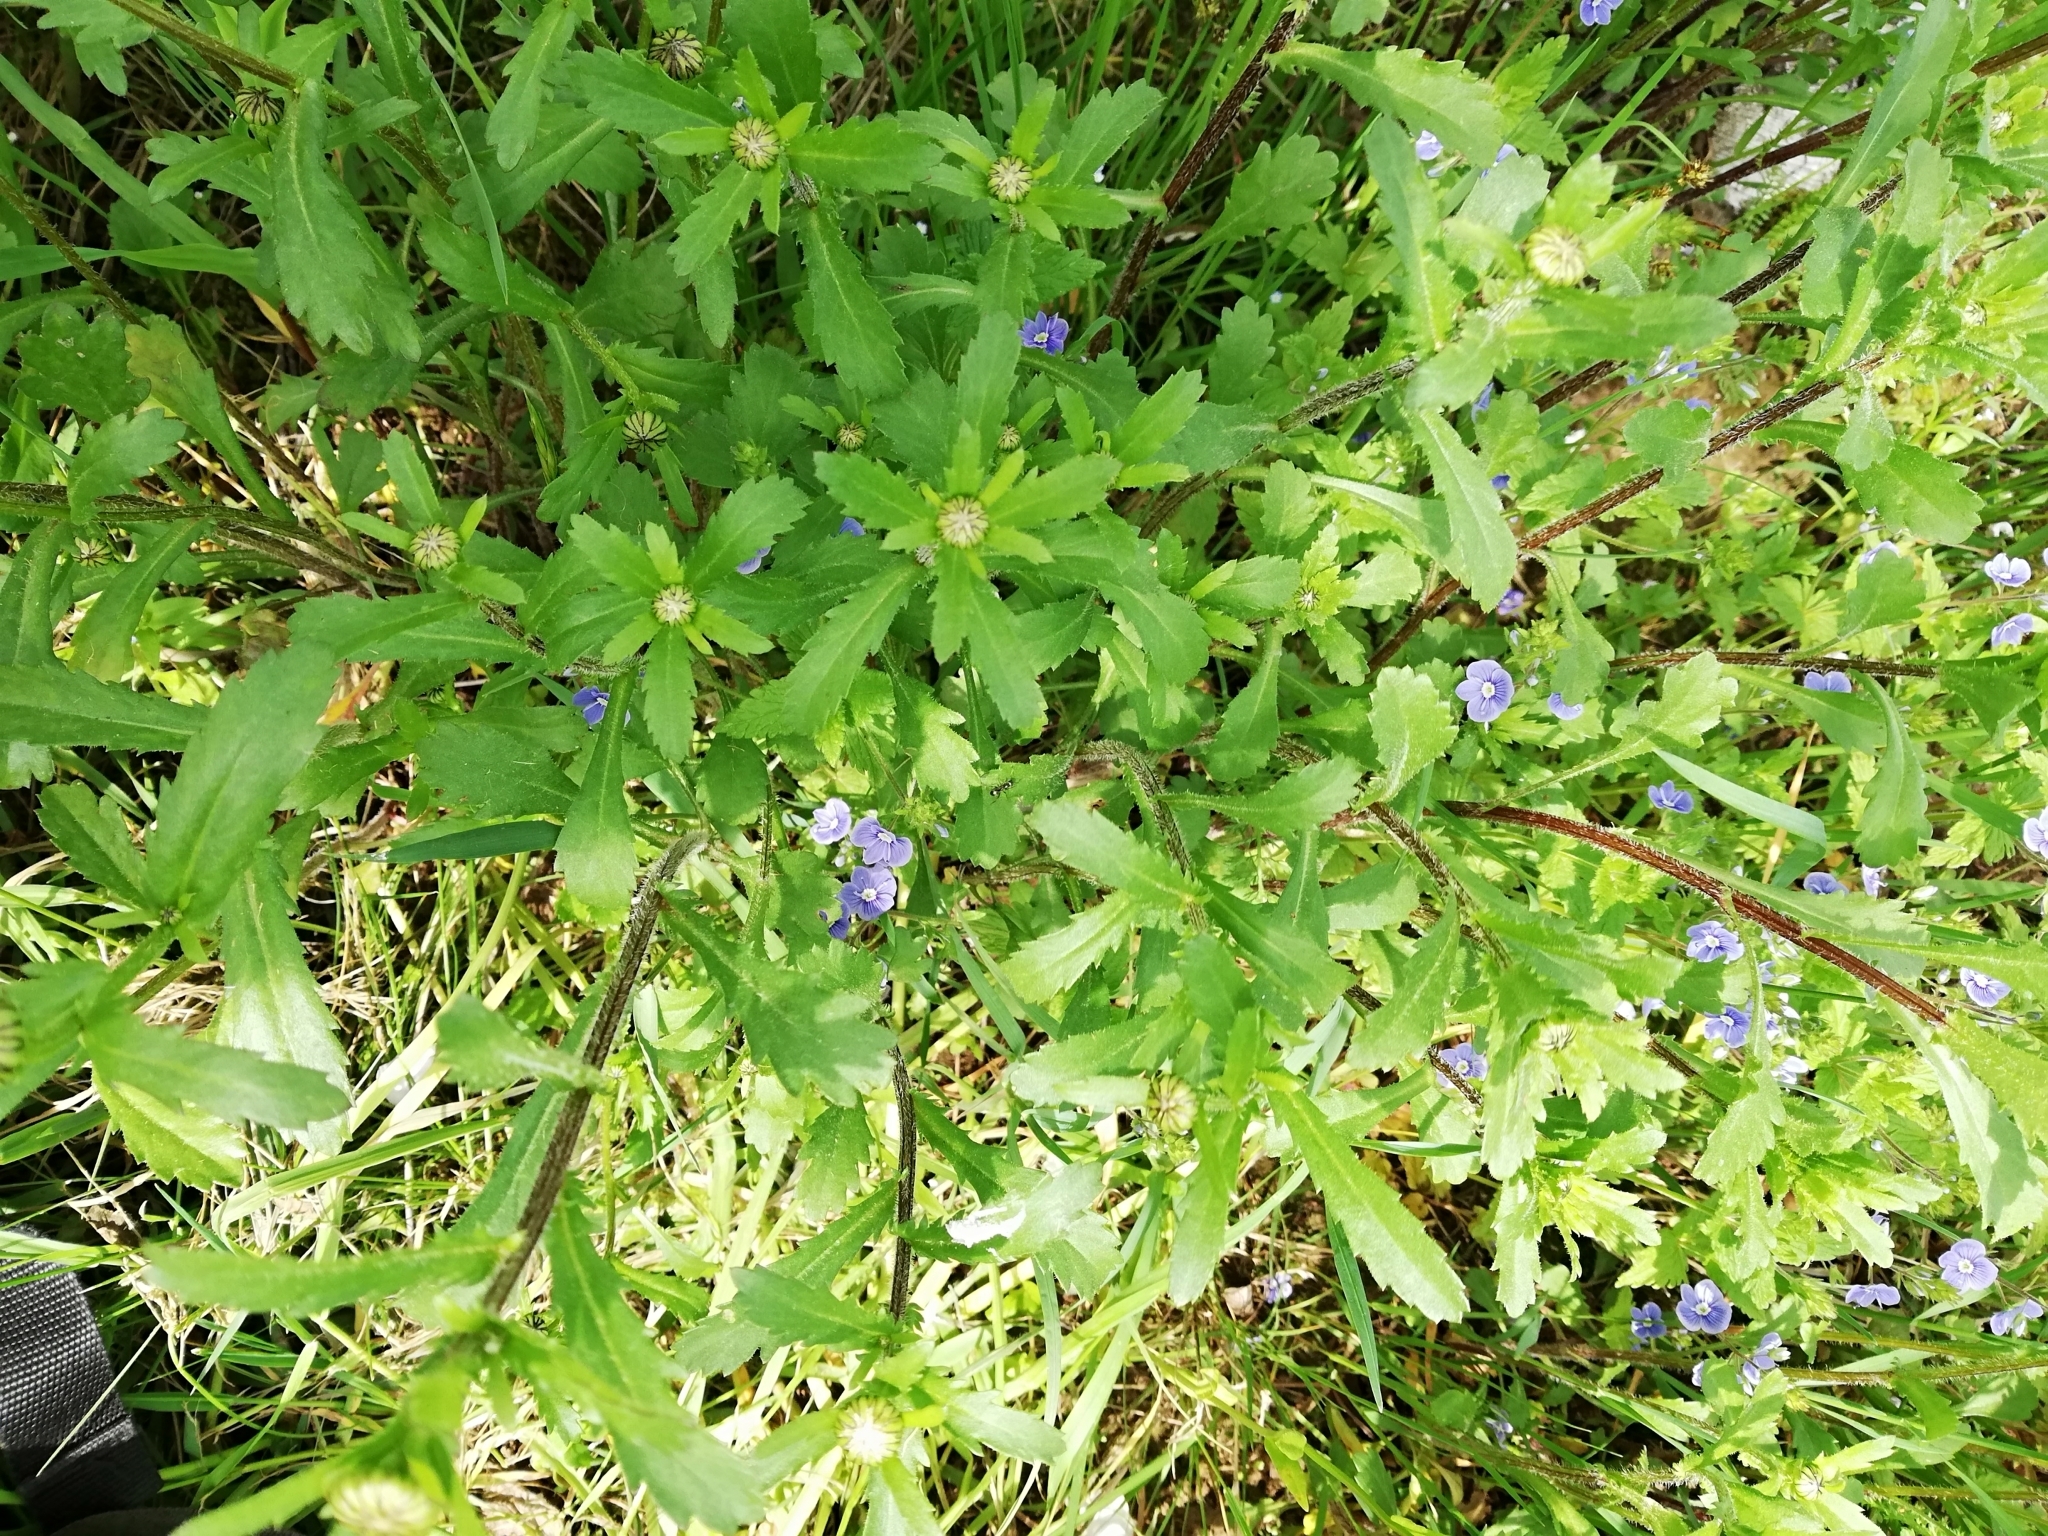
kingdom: Plantae
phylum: Tracheophyta
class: Magnoliopsida
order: Asterales
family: Asteraceae
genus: Leucanthemum
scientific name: Leucanthemum vulgare
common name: Oxeye daisy
